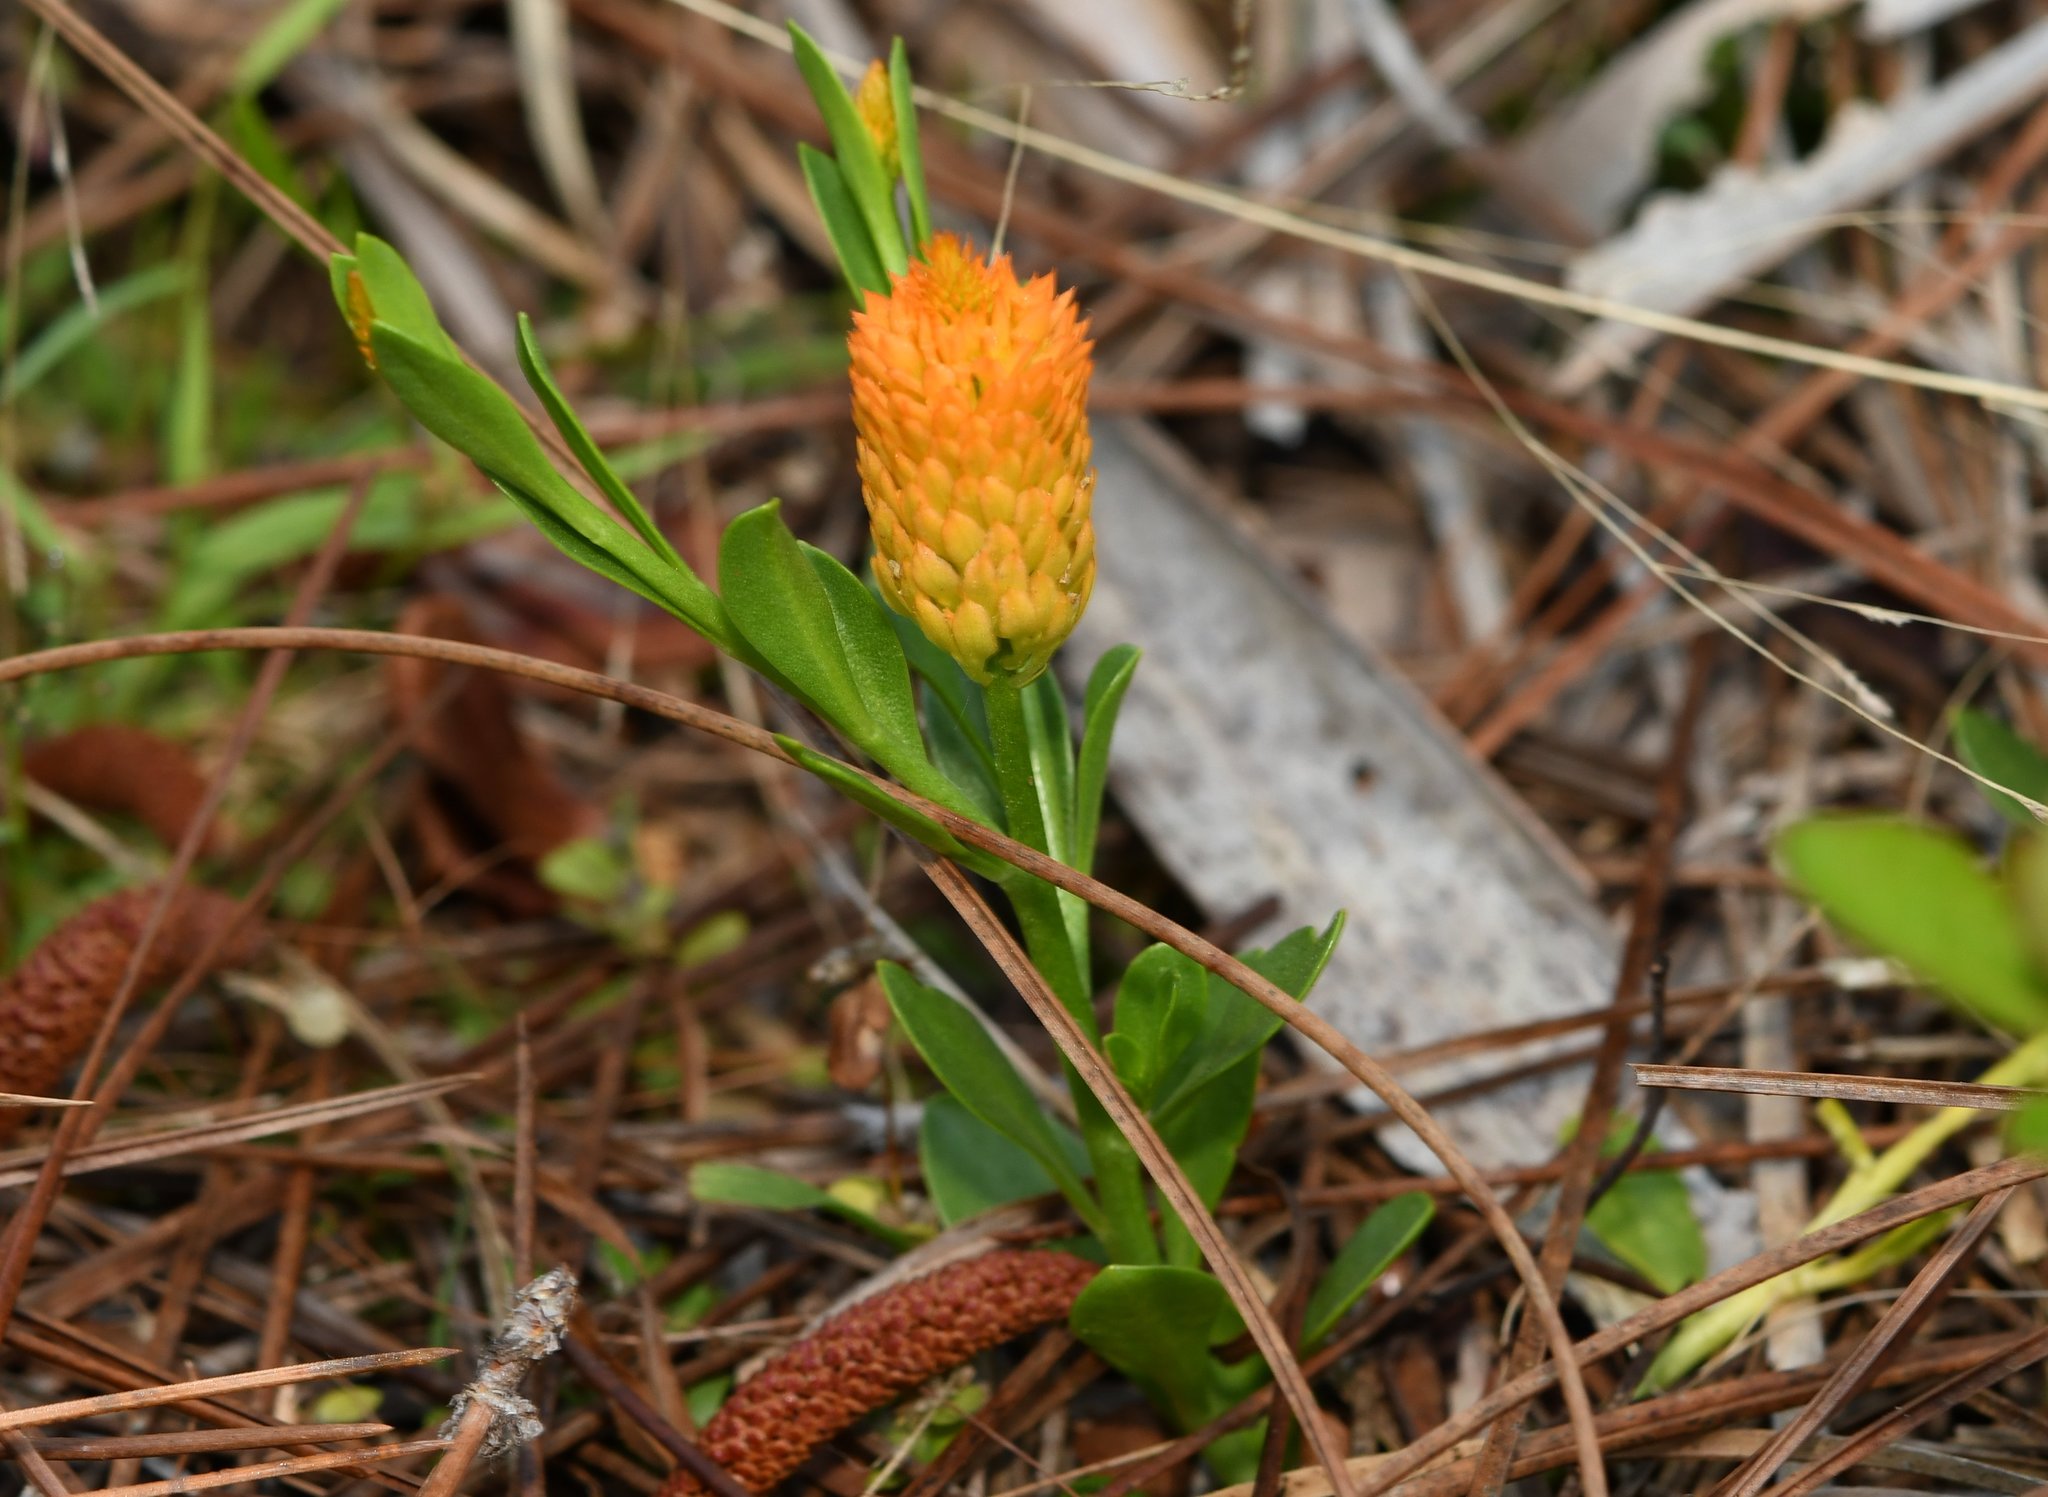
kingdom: Plantae
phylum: Tracheophyta
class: Magnoliopsida
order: Fabales
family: Polygalaceae
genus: Polygala
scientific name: Polygala lutea
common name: Orange milkwort
